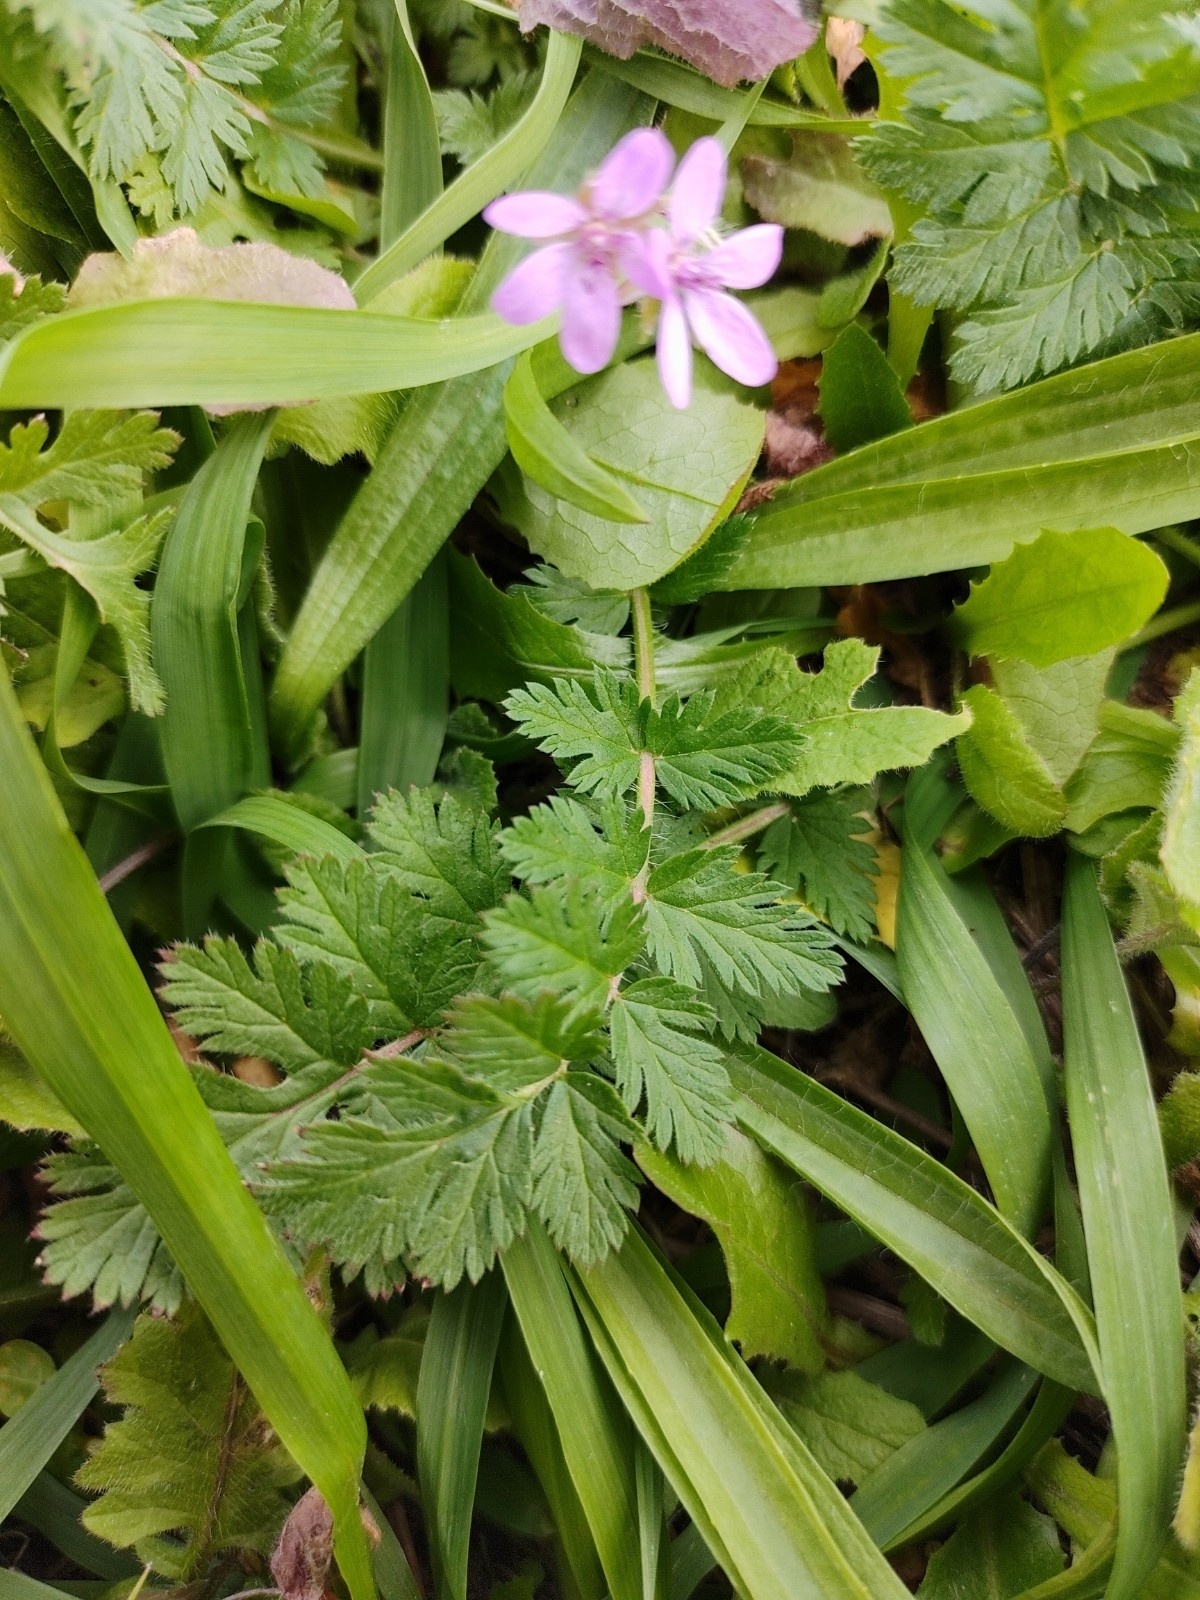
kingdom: Plantae
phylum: Tracheophyta
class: Magnoliopsida
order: Geraniales
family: Geraniaceae
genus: Erodium
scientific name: Erodium cicutarium
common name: Common stork's-bill
